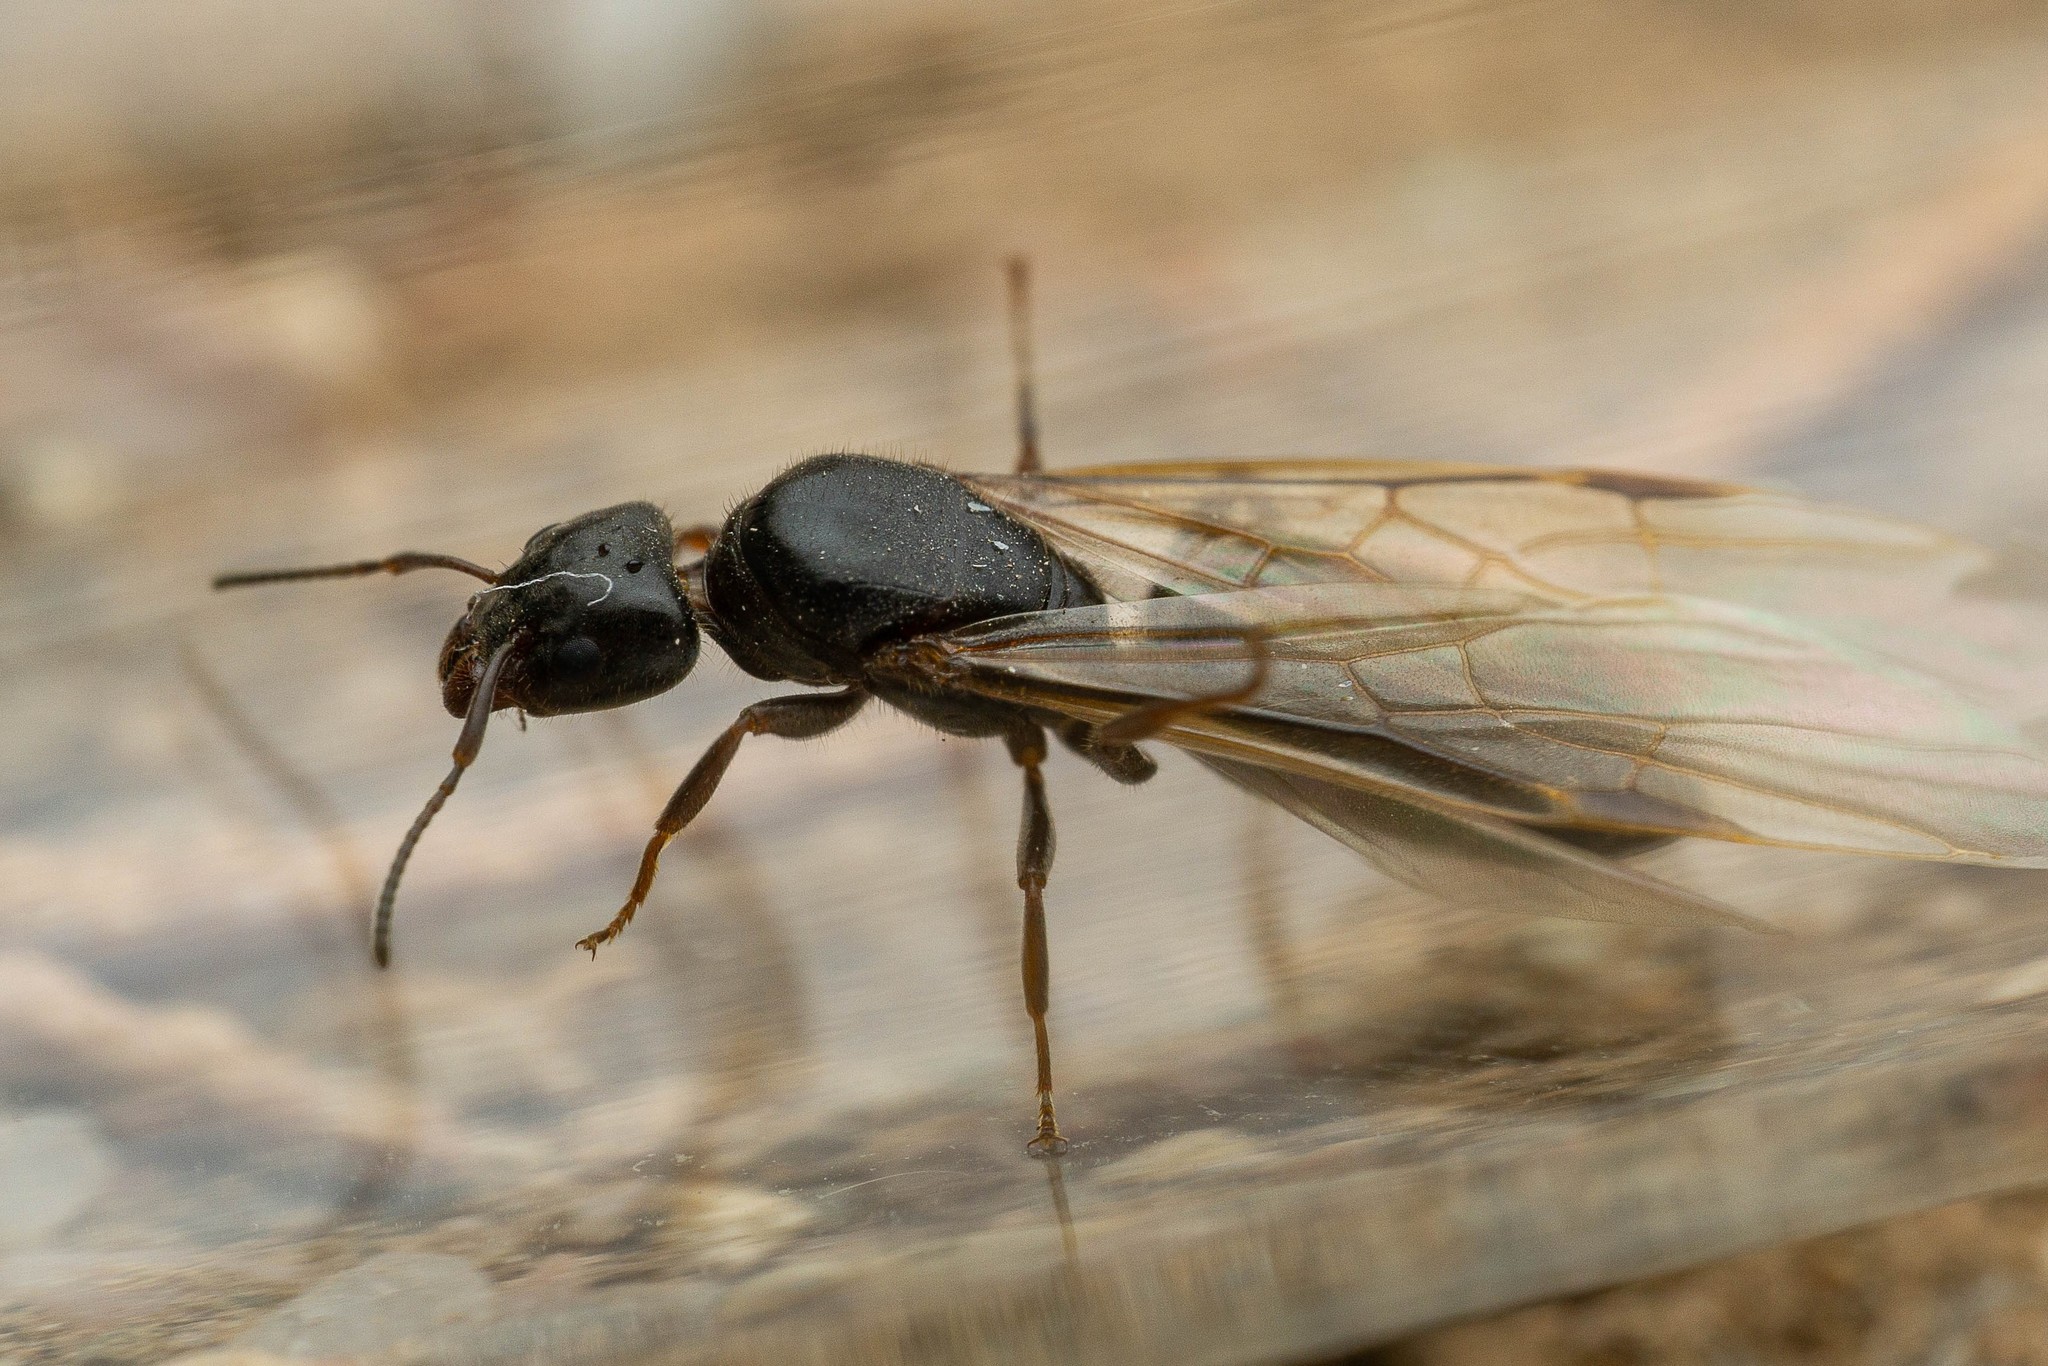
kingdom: Animalia
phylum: Arthropoda
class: Insecta
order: Hymenoptera
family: Formicidae
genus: Liometopum
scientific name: Liometopum luctuosum
